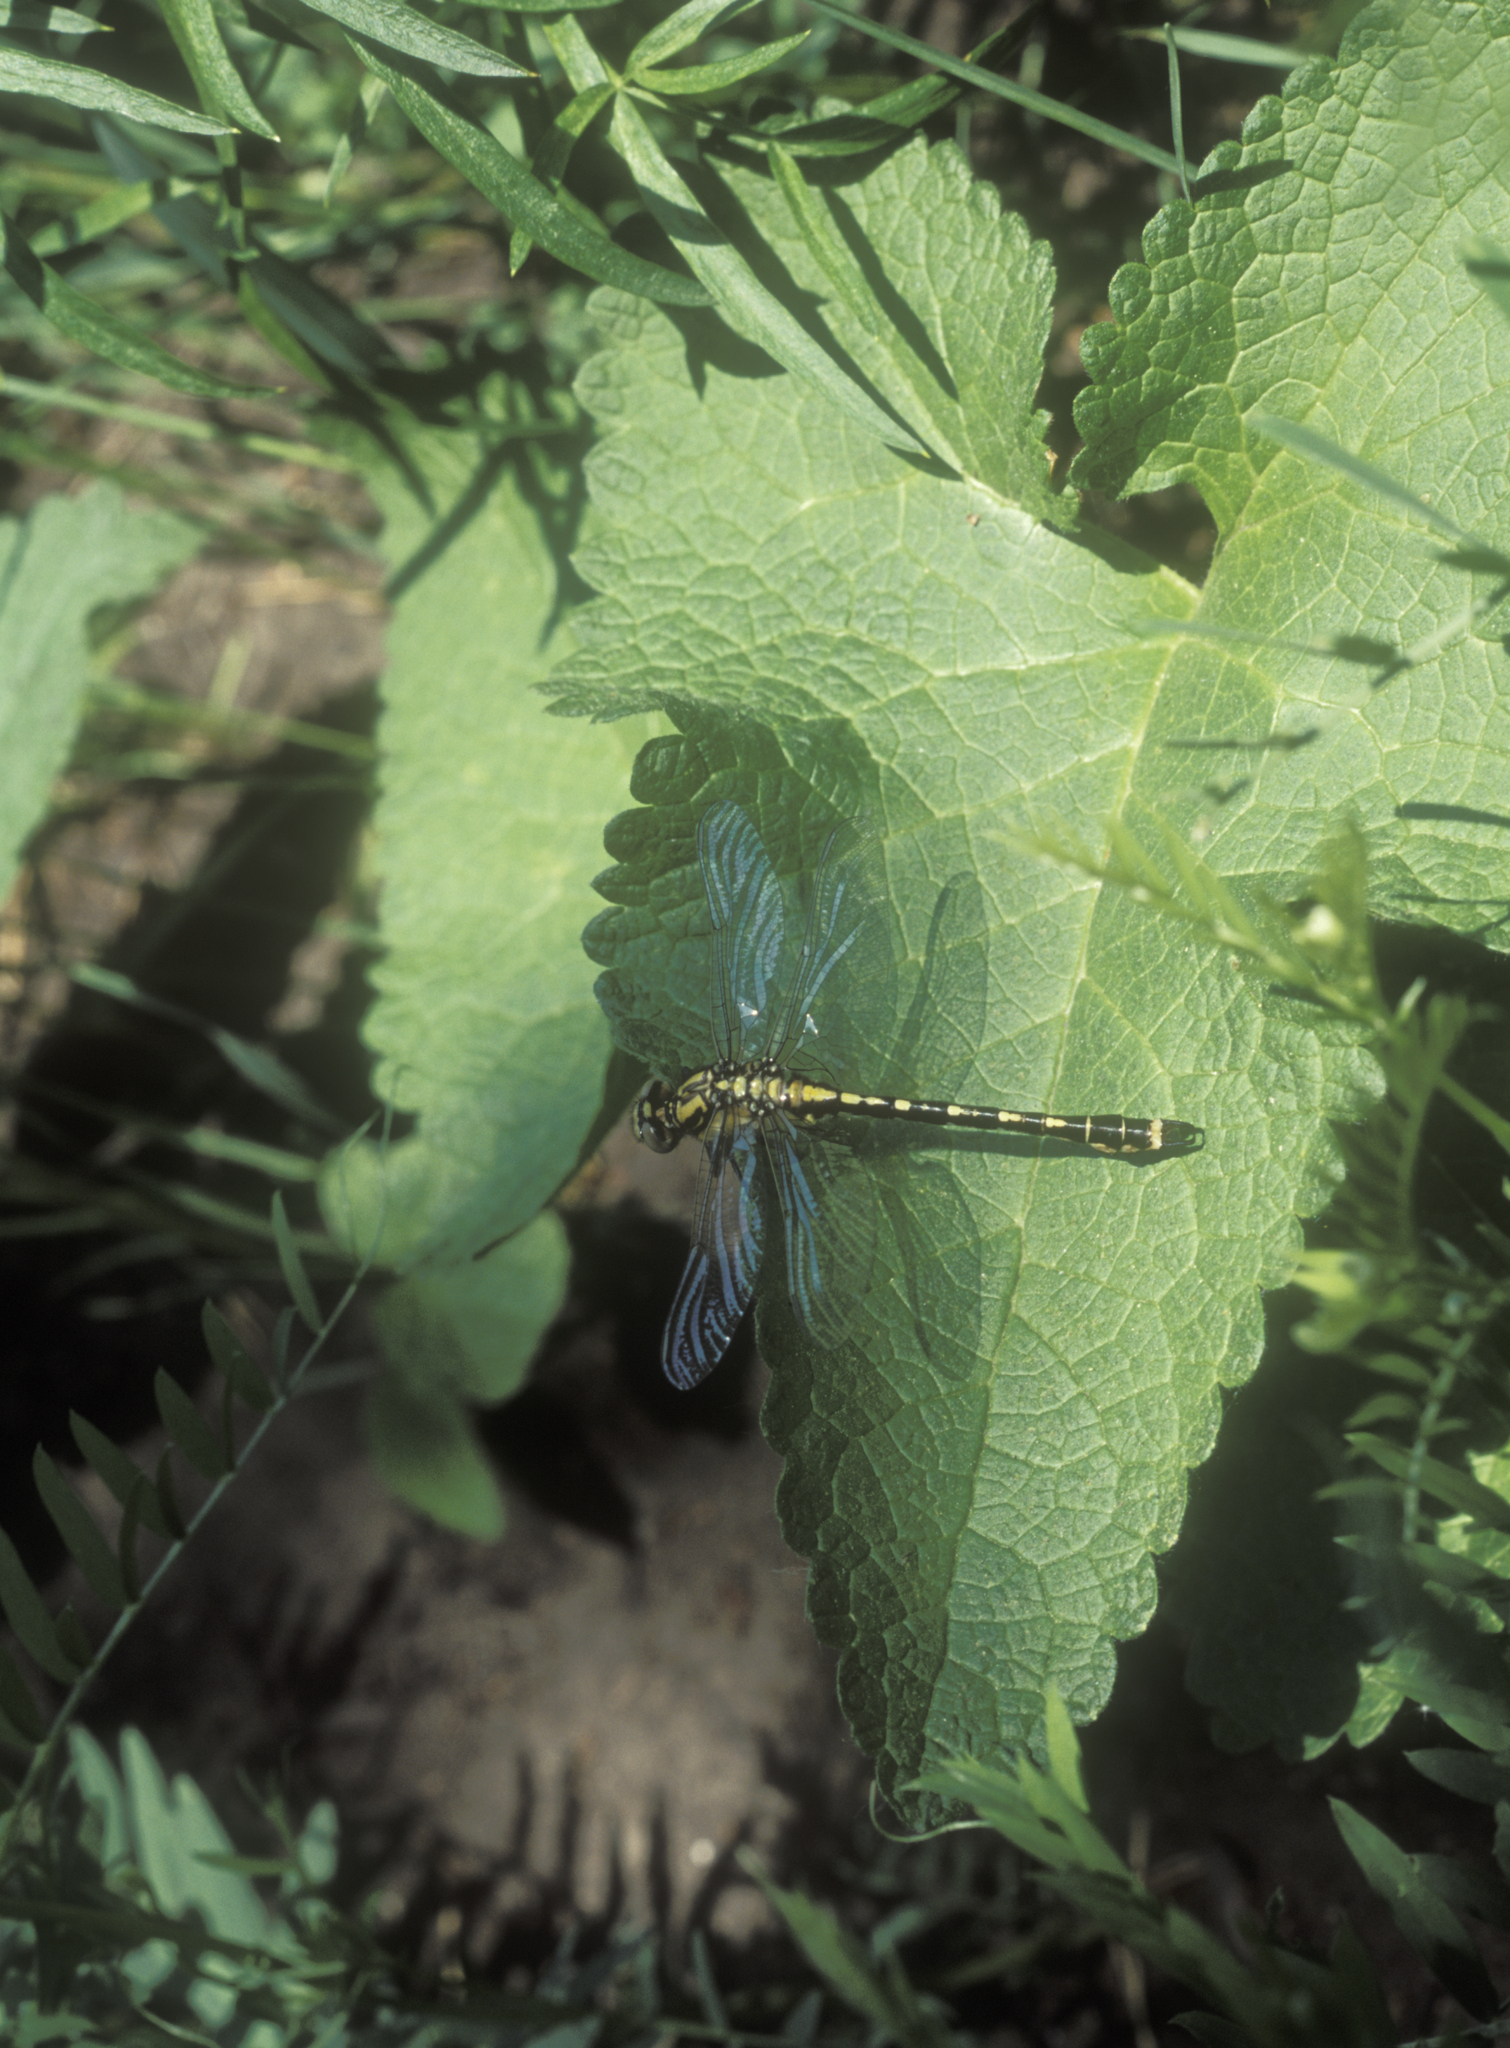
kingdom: Plantae
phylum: Tracheophyta
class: Magnoliopsida
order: Lamiales
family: Lamiaceae
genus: Phlomoides
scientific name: Phlomoides tuberosa
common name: Tuberous jerusalem sage
